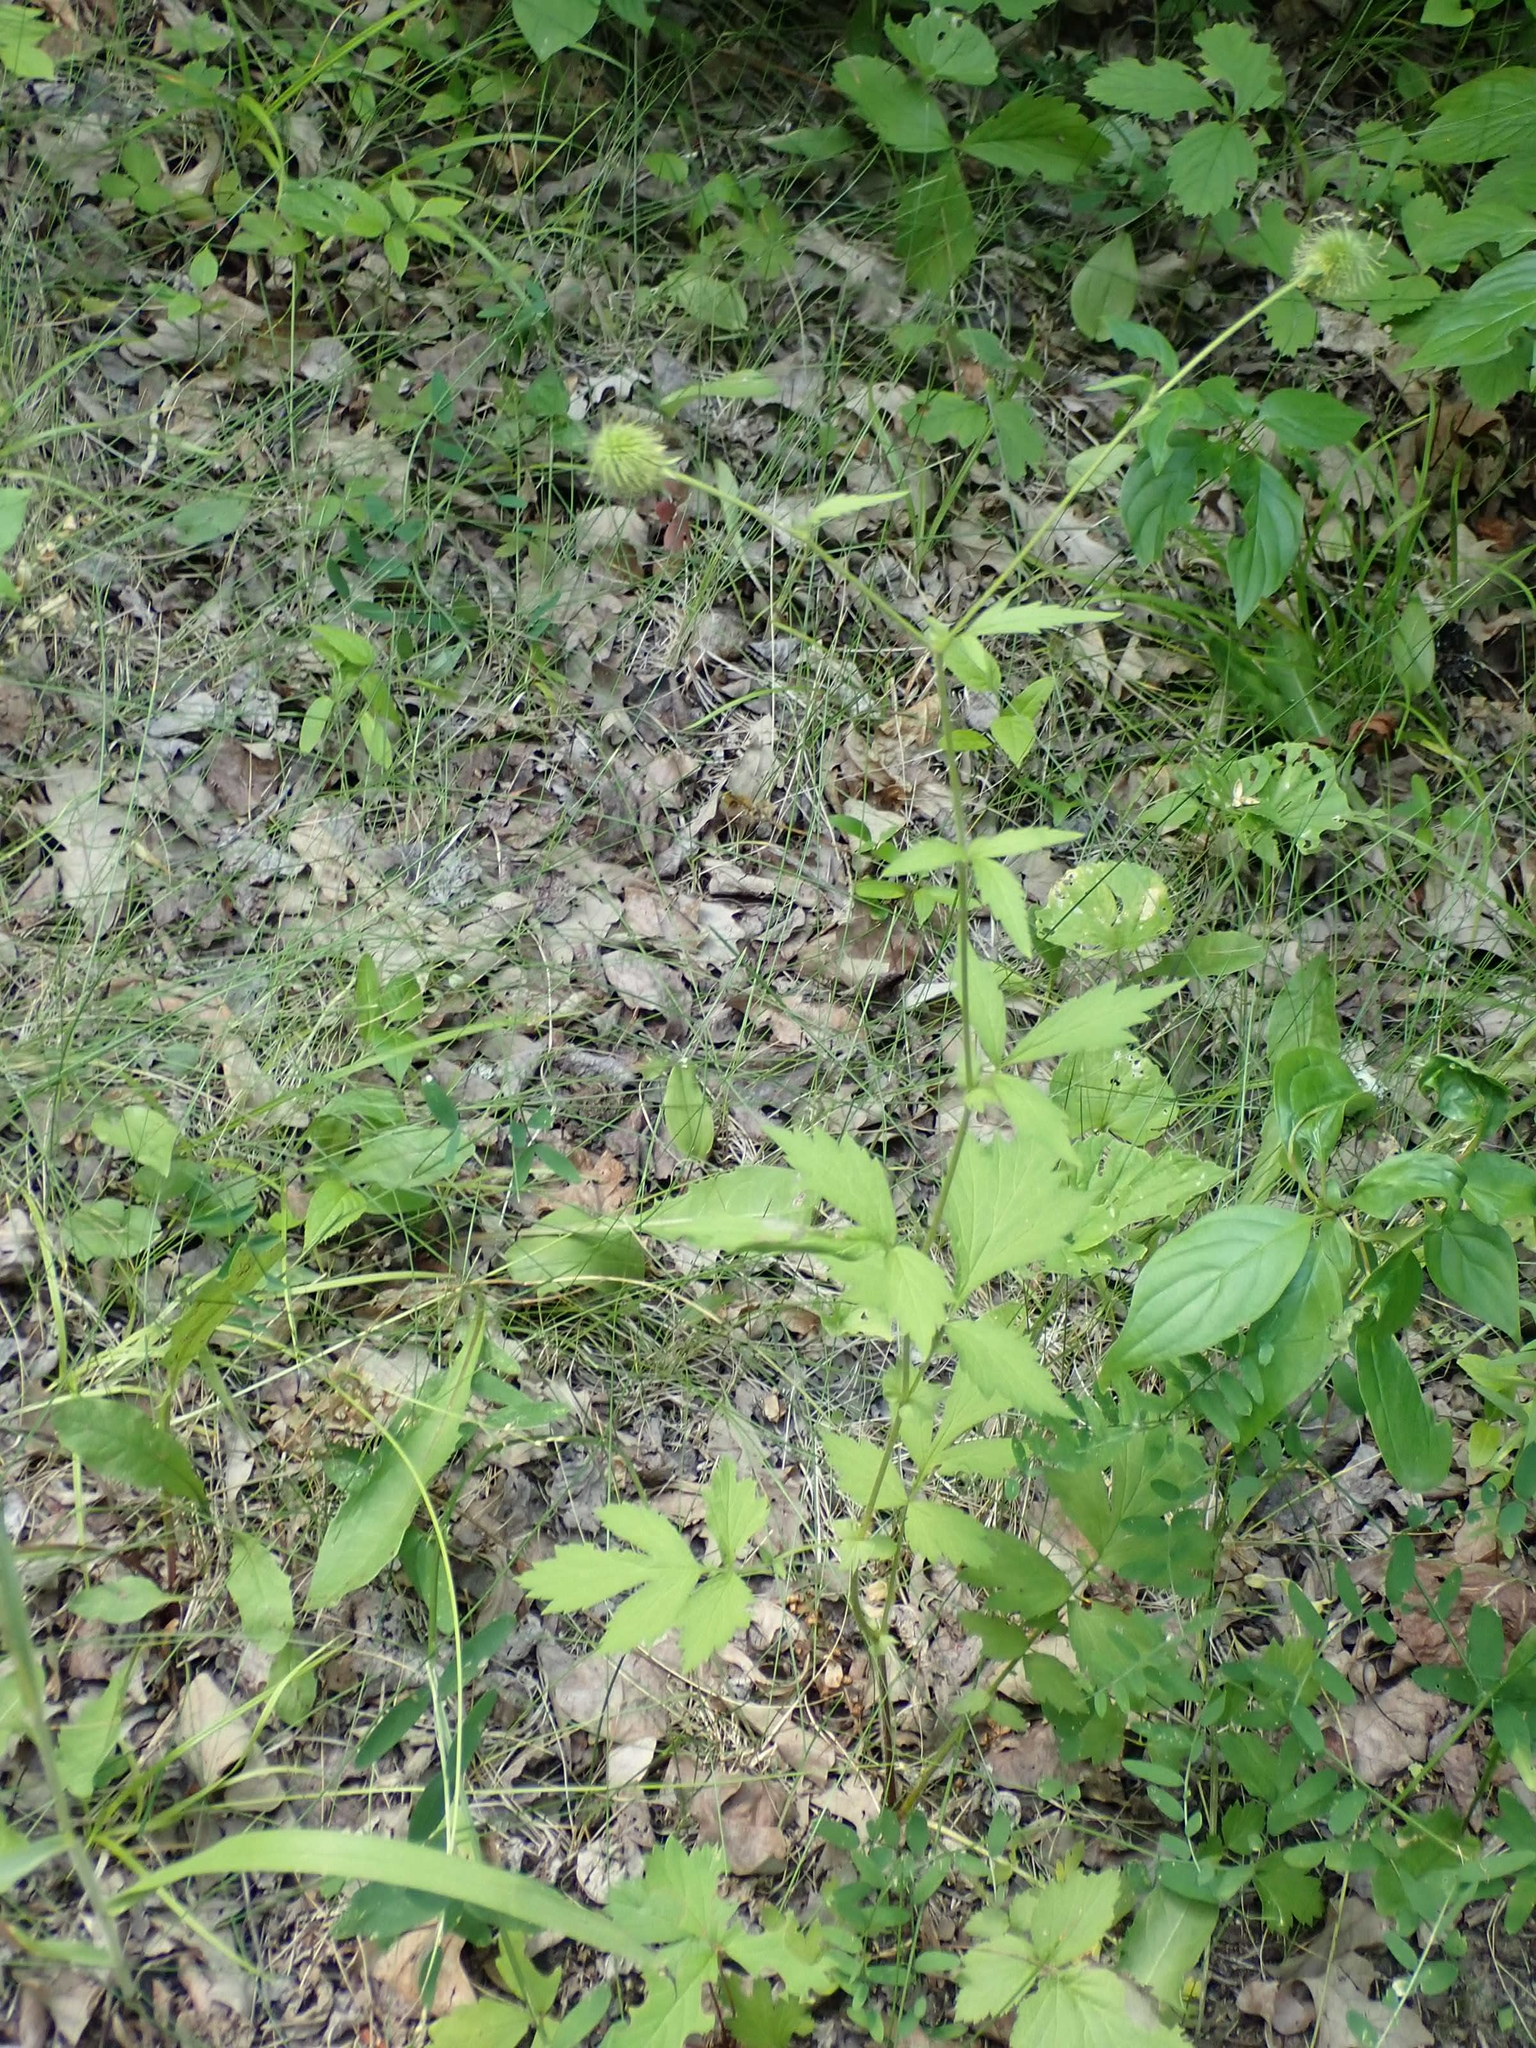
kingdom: Plantae
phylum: Tracheophyta
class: Magnoliopsida
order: Rosales
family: Rosaceae
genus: Geum
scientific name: Geum aleppicum
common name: Yellow avens
